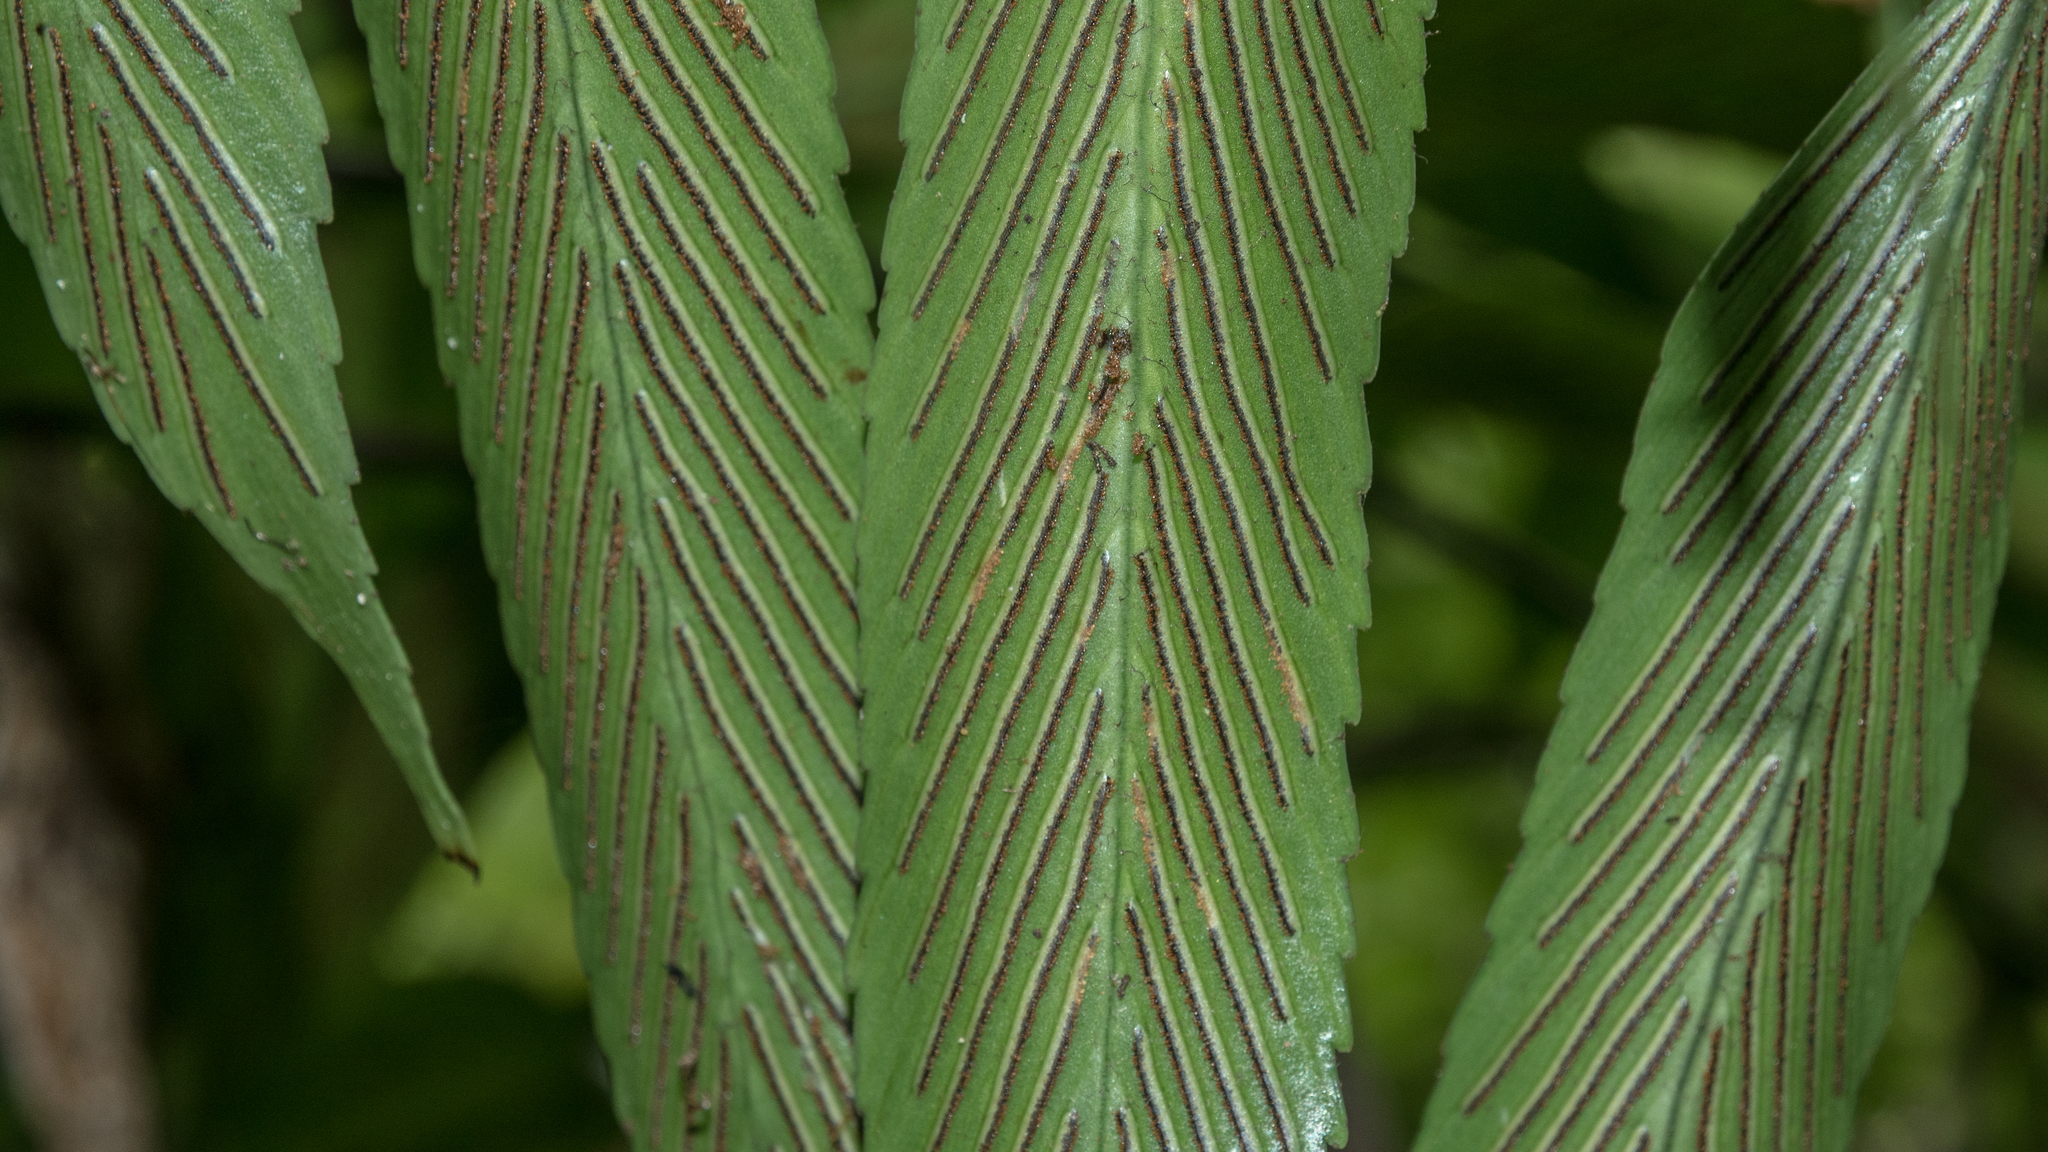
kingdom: Plantae
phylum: Tracheophyta
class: Polypodiopsida
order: Polypodiales
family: Aspleniaceae
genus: Asplenium
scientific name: Asplenium oblongifolium
